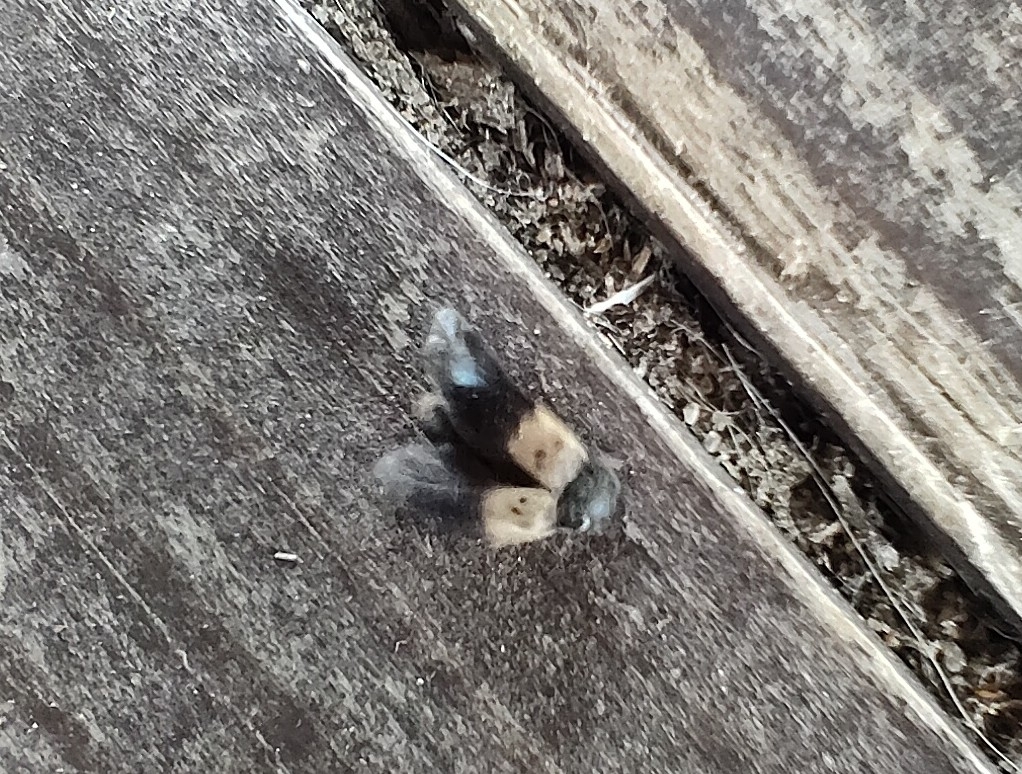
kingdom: Animalia
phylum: Arthropoda
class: Insecta
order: Coleoptera
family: Dermestidae
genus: Dermestes
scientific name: Dermestes lardarius
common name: Larder beetle
